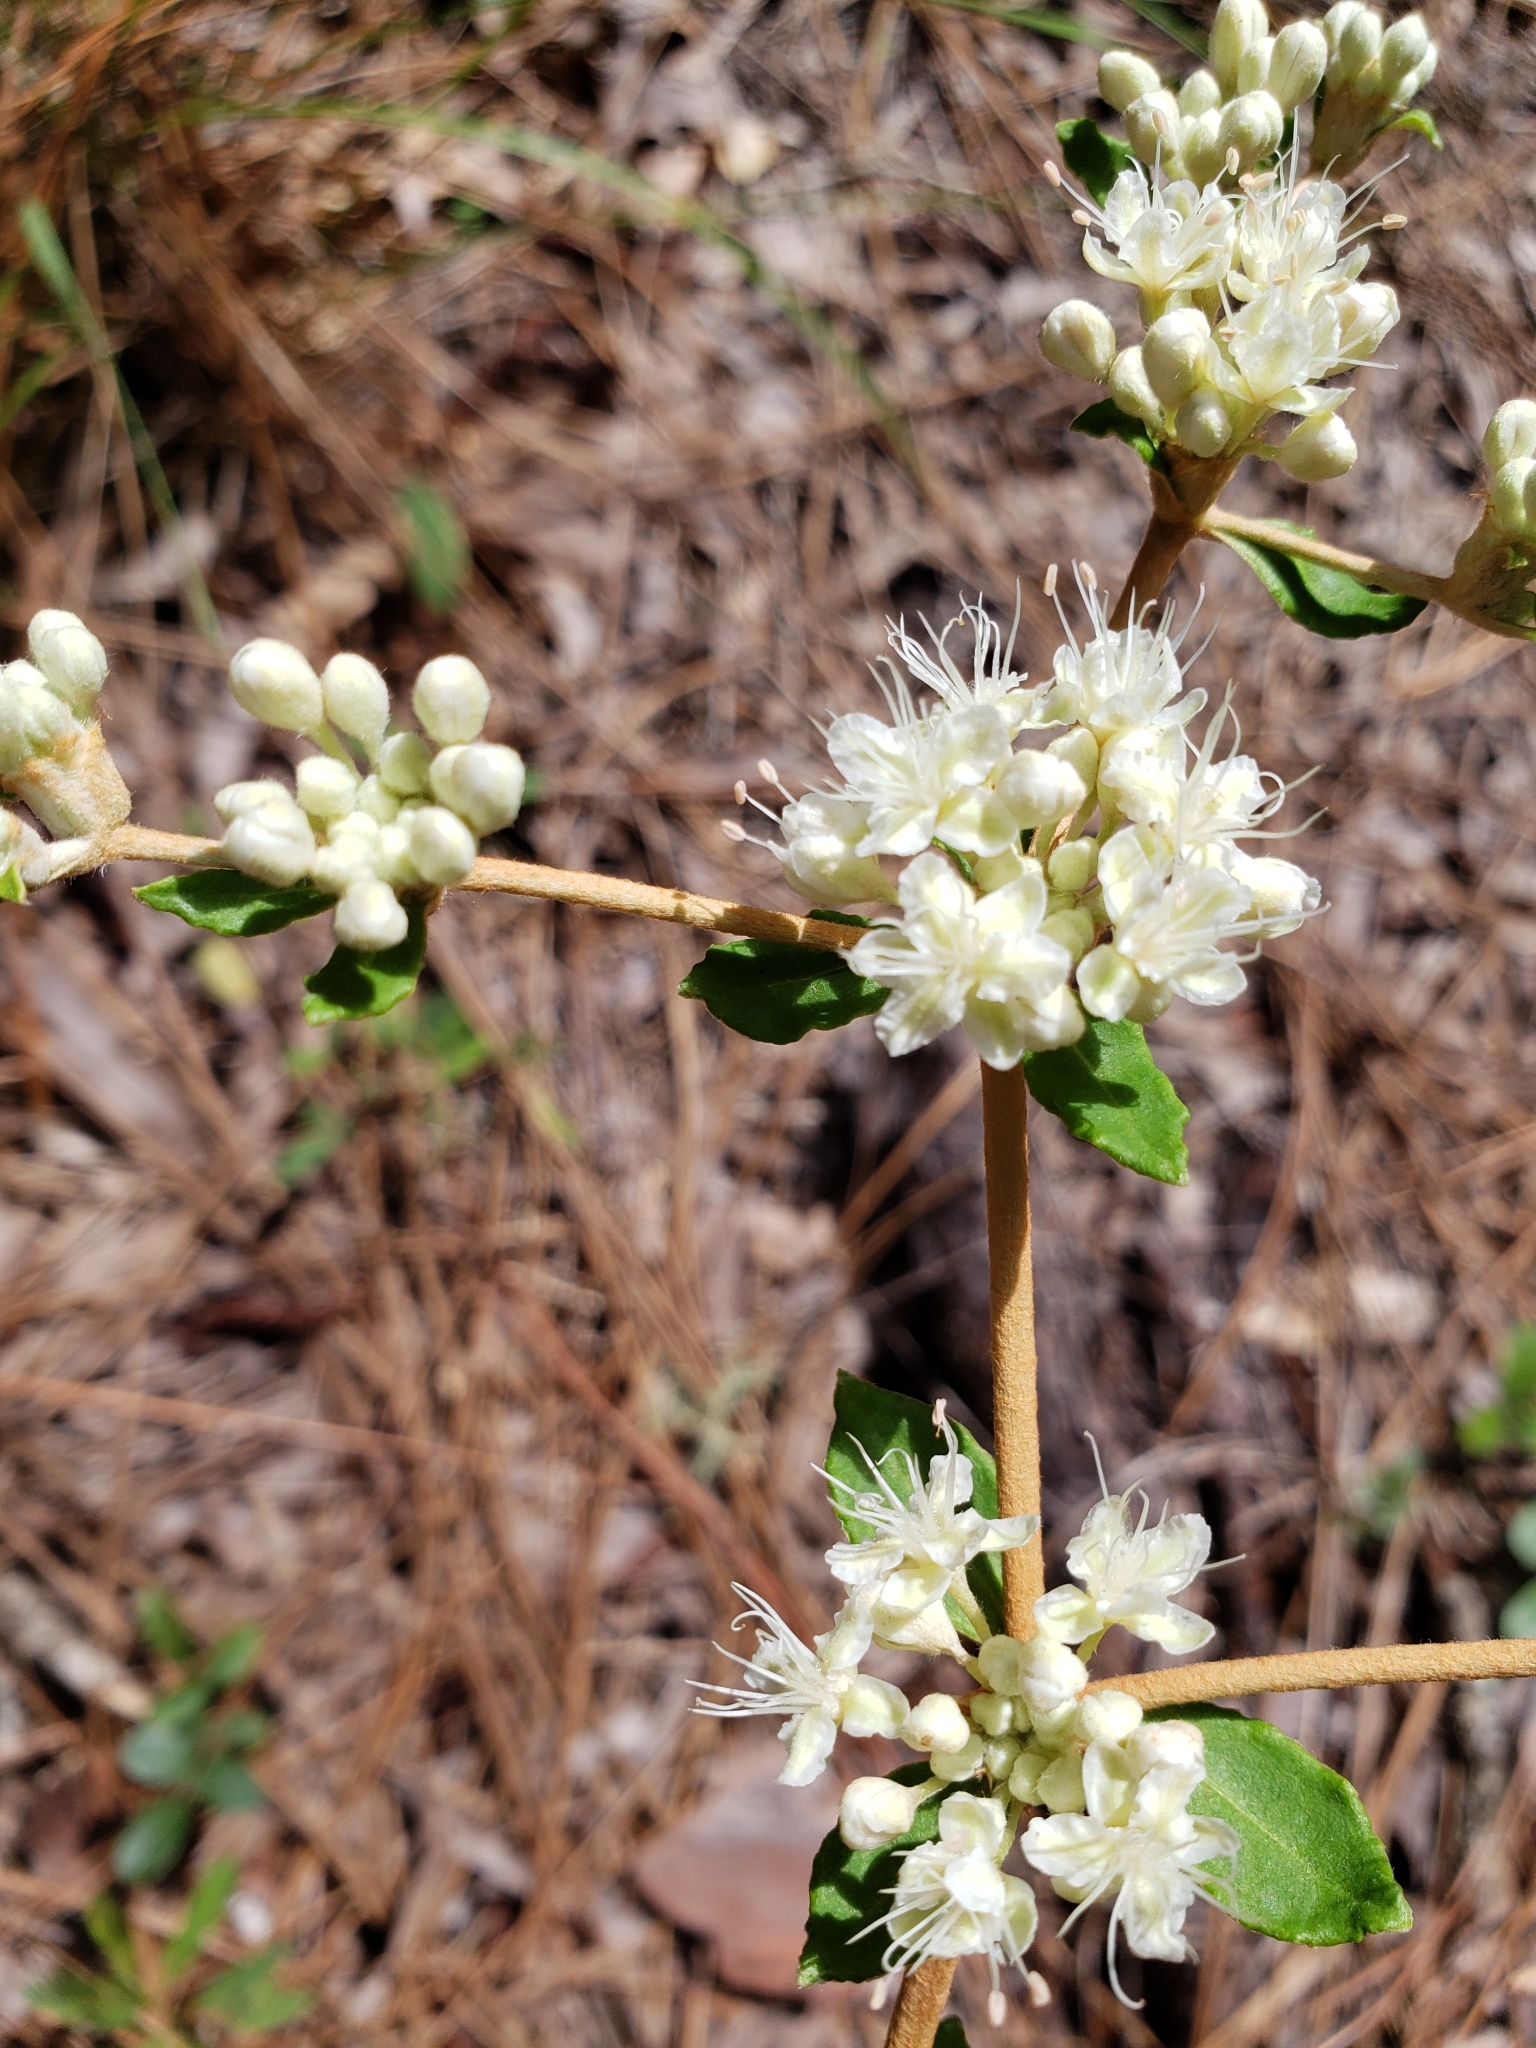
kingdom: Plantae
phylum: Tracheophyta
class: Magnoliopsida
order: Caryophyllales
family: Polygonaceae
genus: Eriogonum
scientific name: Eriogonum tomentosum
